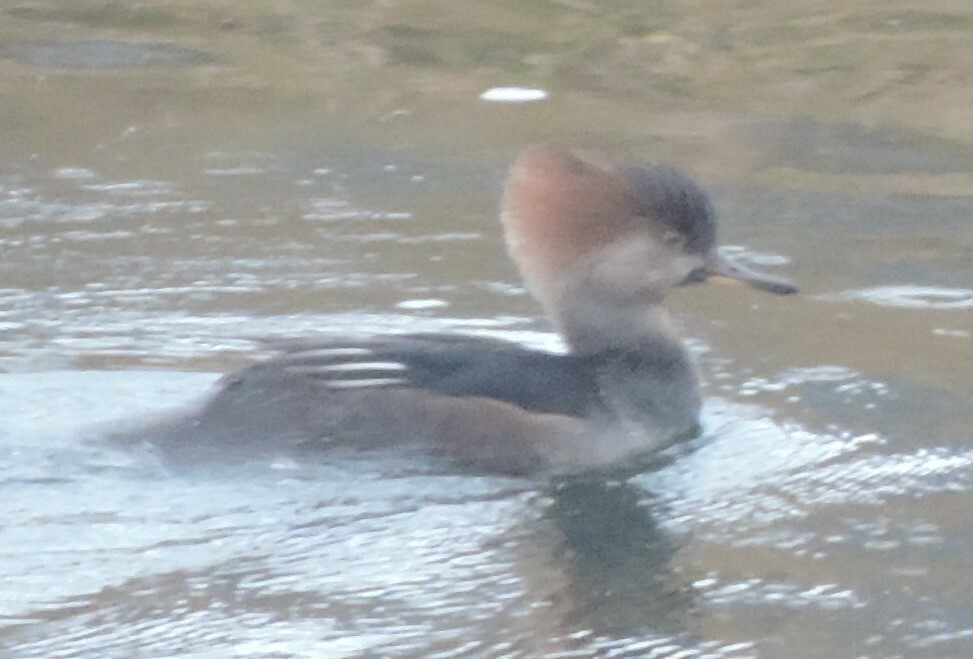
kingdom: Animalia
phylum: Chordata
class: Aves
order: Anseriformes
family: Anatidae
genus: Lophodytes
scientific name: Lophodytes cucullatus
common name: Hooded merganser
